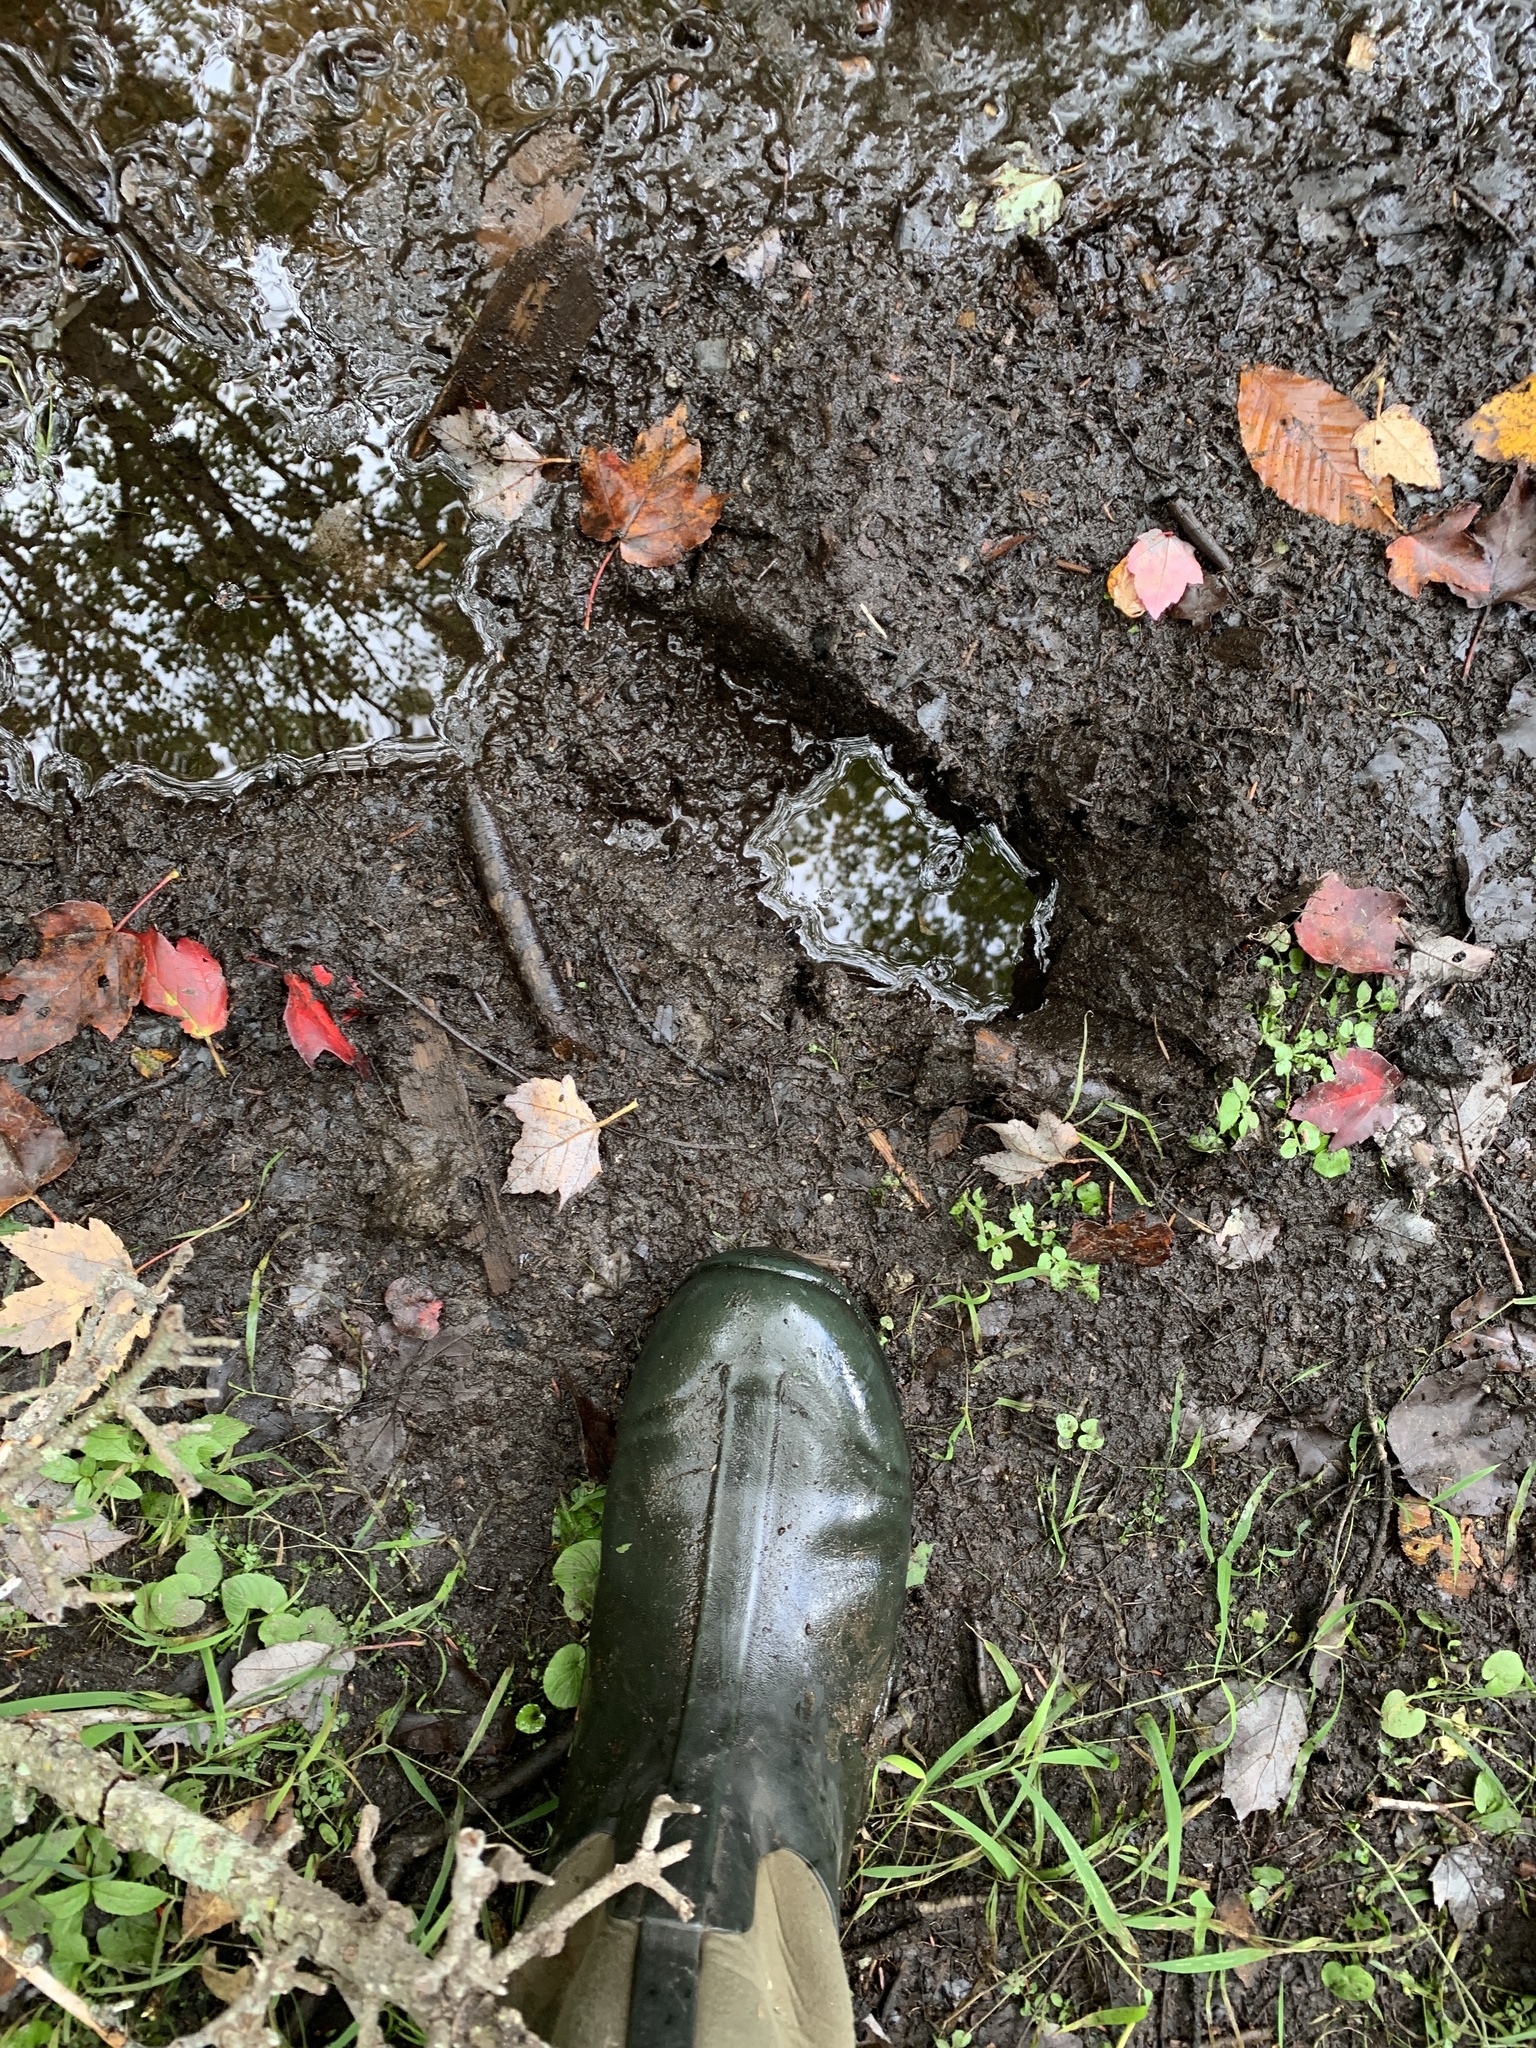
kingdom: Animalia
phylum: Chordata
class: Mammalia
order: Artiodactyla
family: Cervidae
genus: Alces
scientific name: Alces alces
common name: Moose
